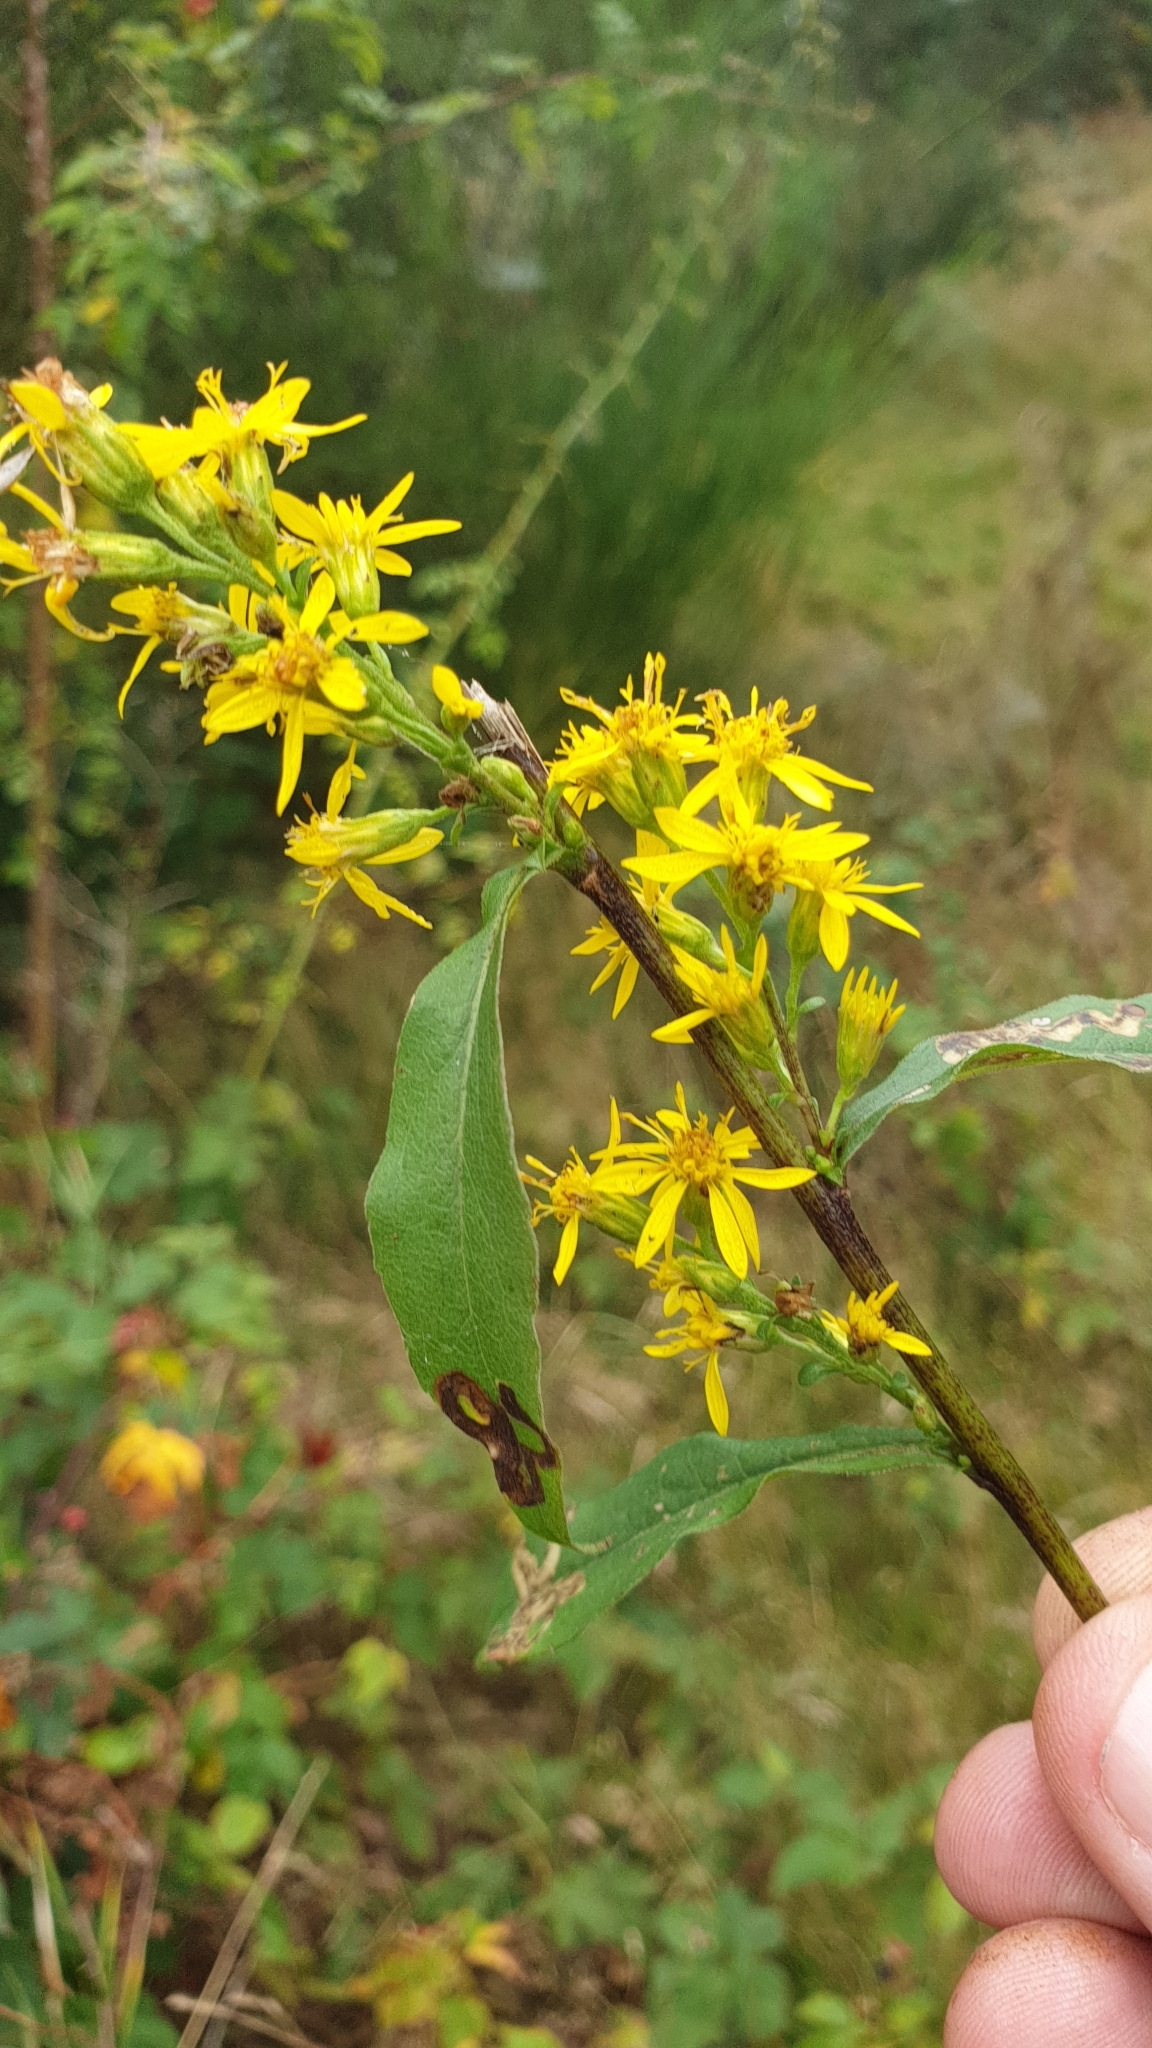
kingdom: Plantae
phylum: Tracheophyta
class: Magnoliopsida
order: Asterales
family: Asteraceae
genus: Solidago
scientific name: Solidago virgaurea
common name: Goldenrod
